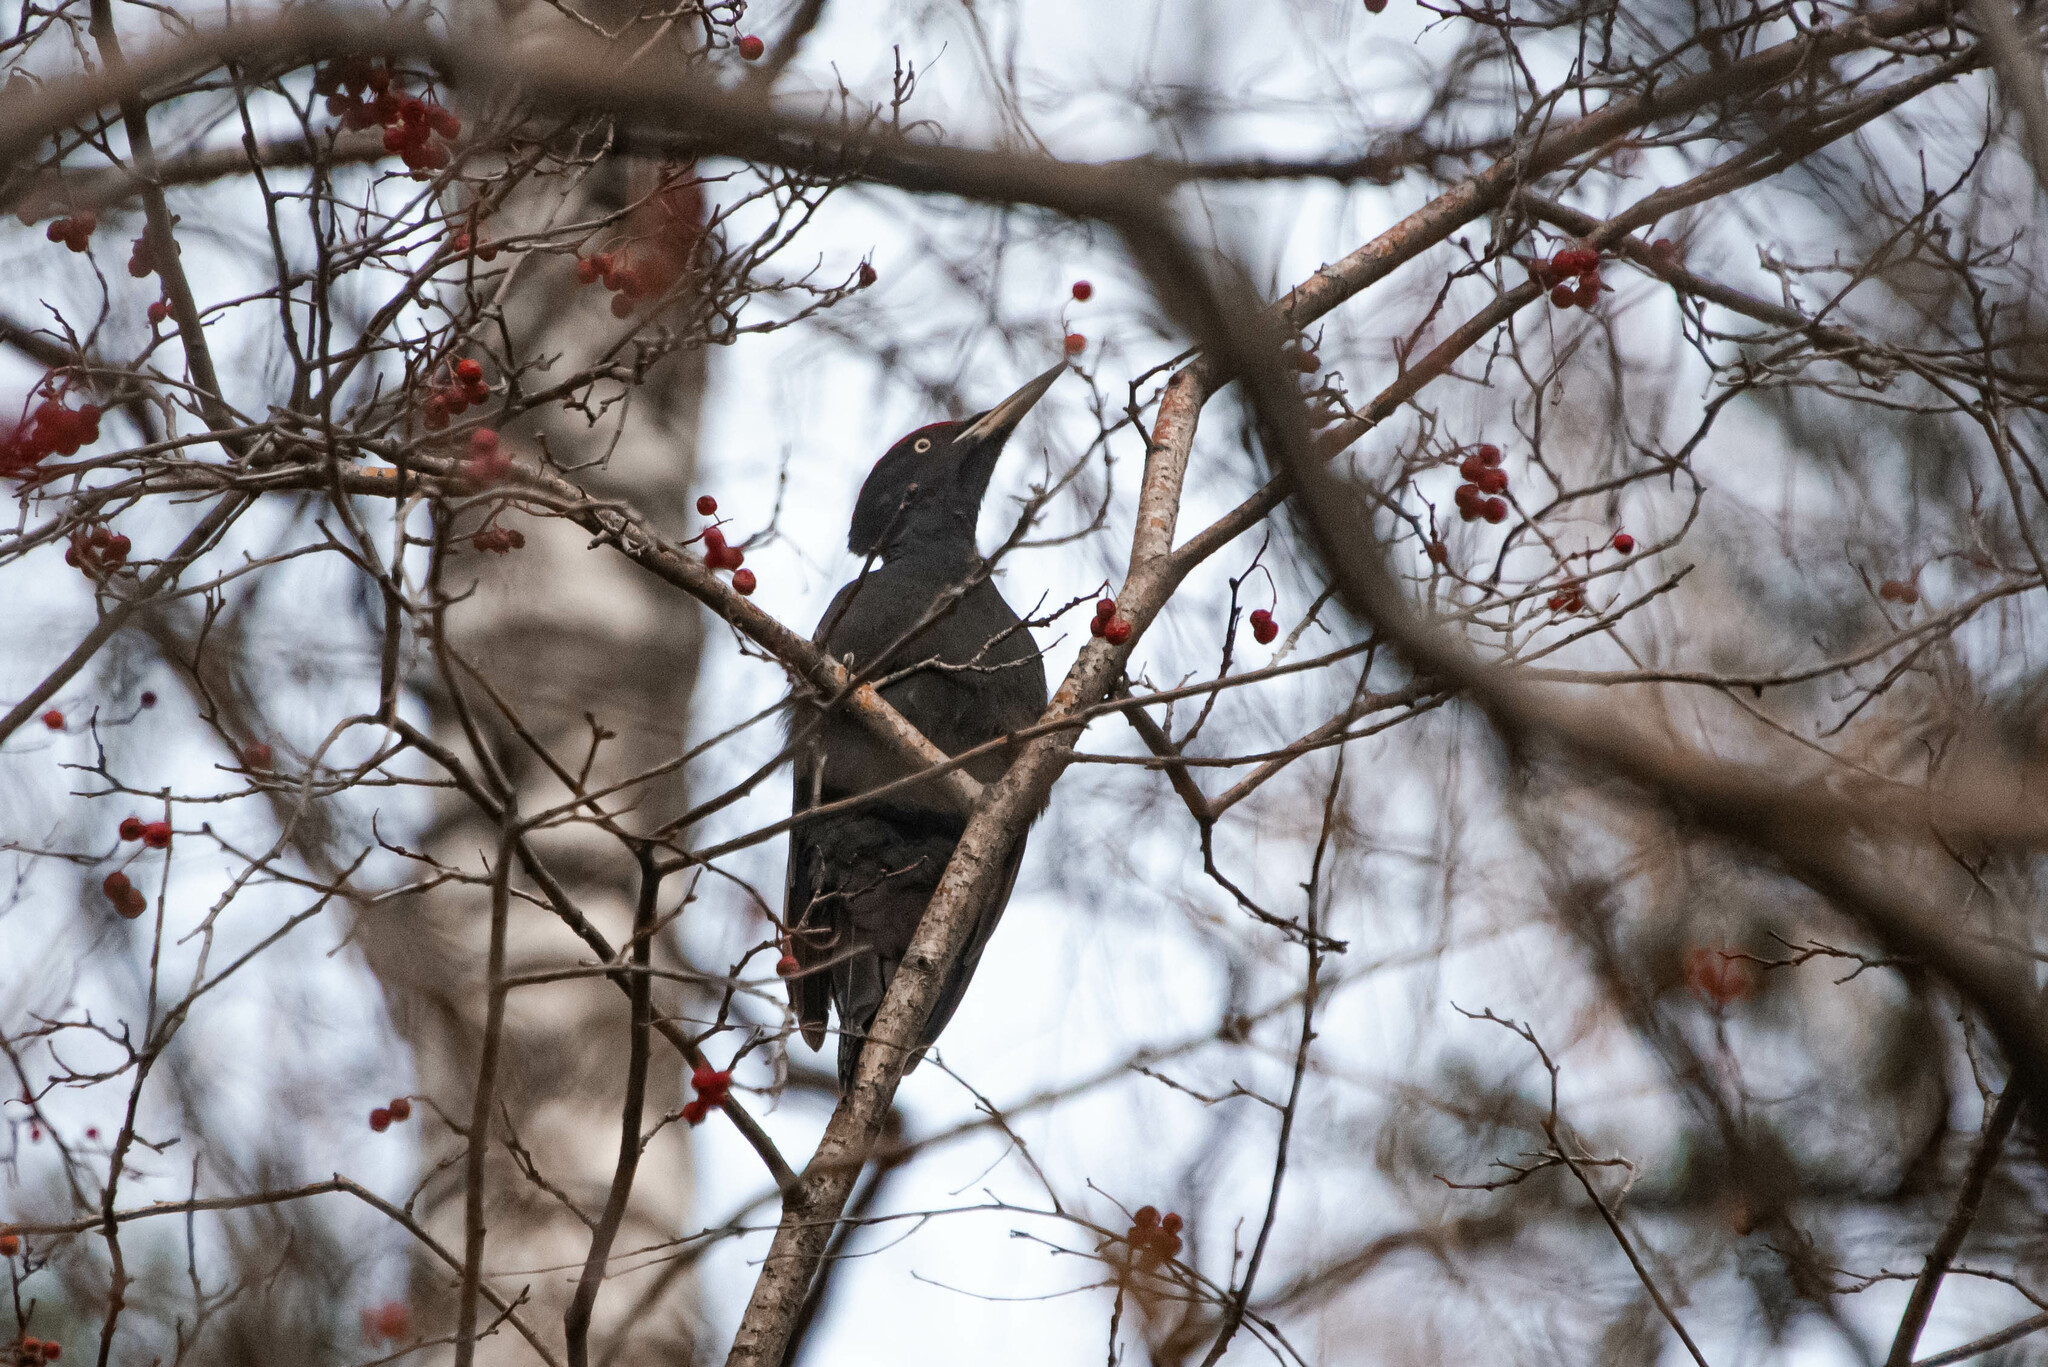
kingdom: Animalia
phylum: Chordata
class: Aves
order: Piciformes
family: Picidae
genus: Dryocopus
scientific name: Dryocopus martius
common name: Black woodpecker
